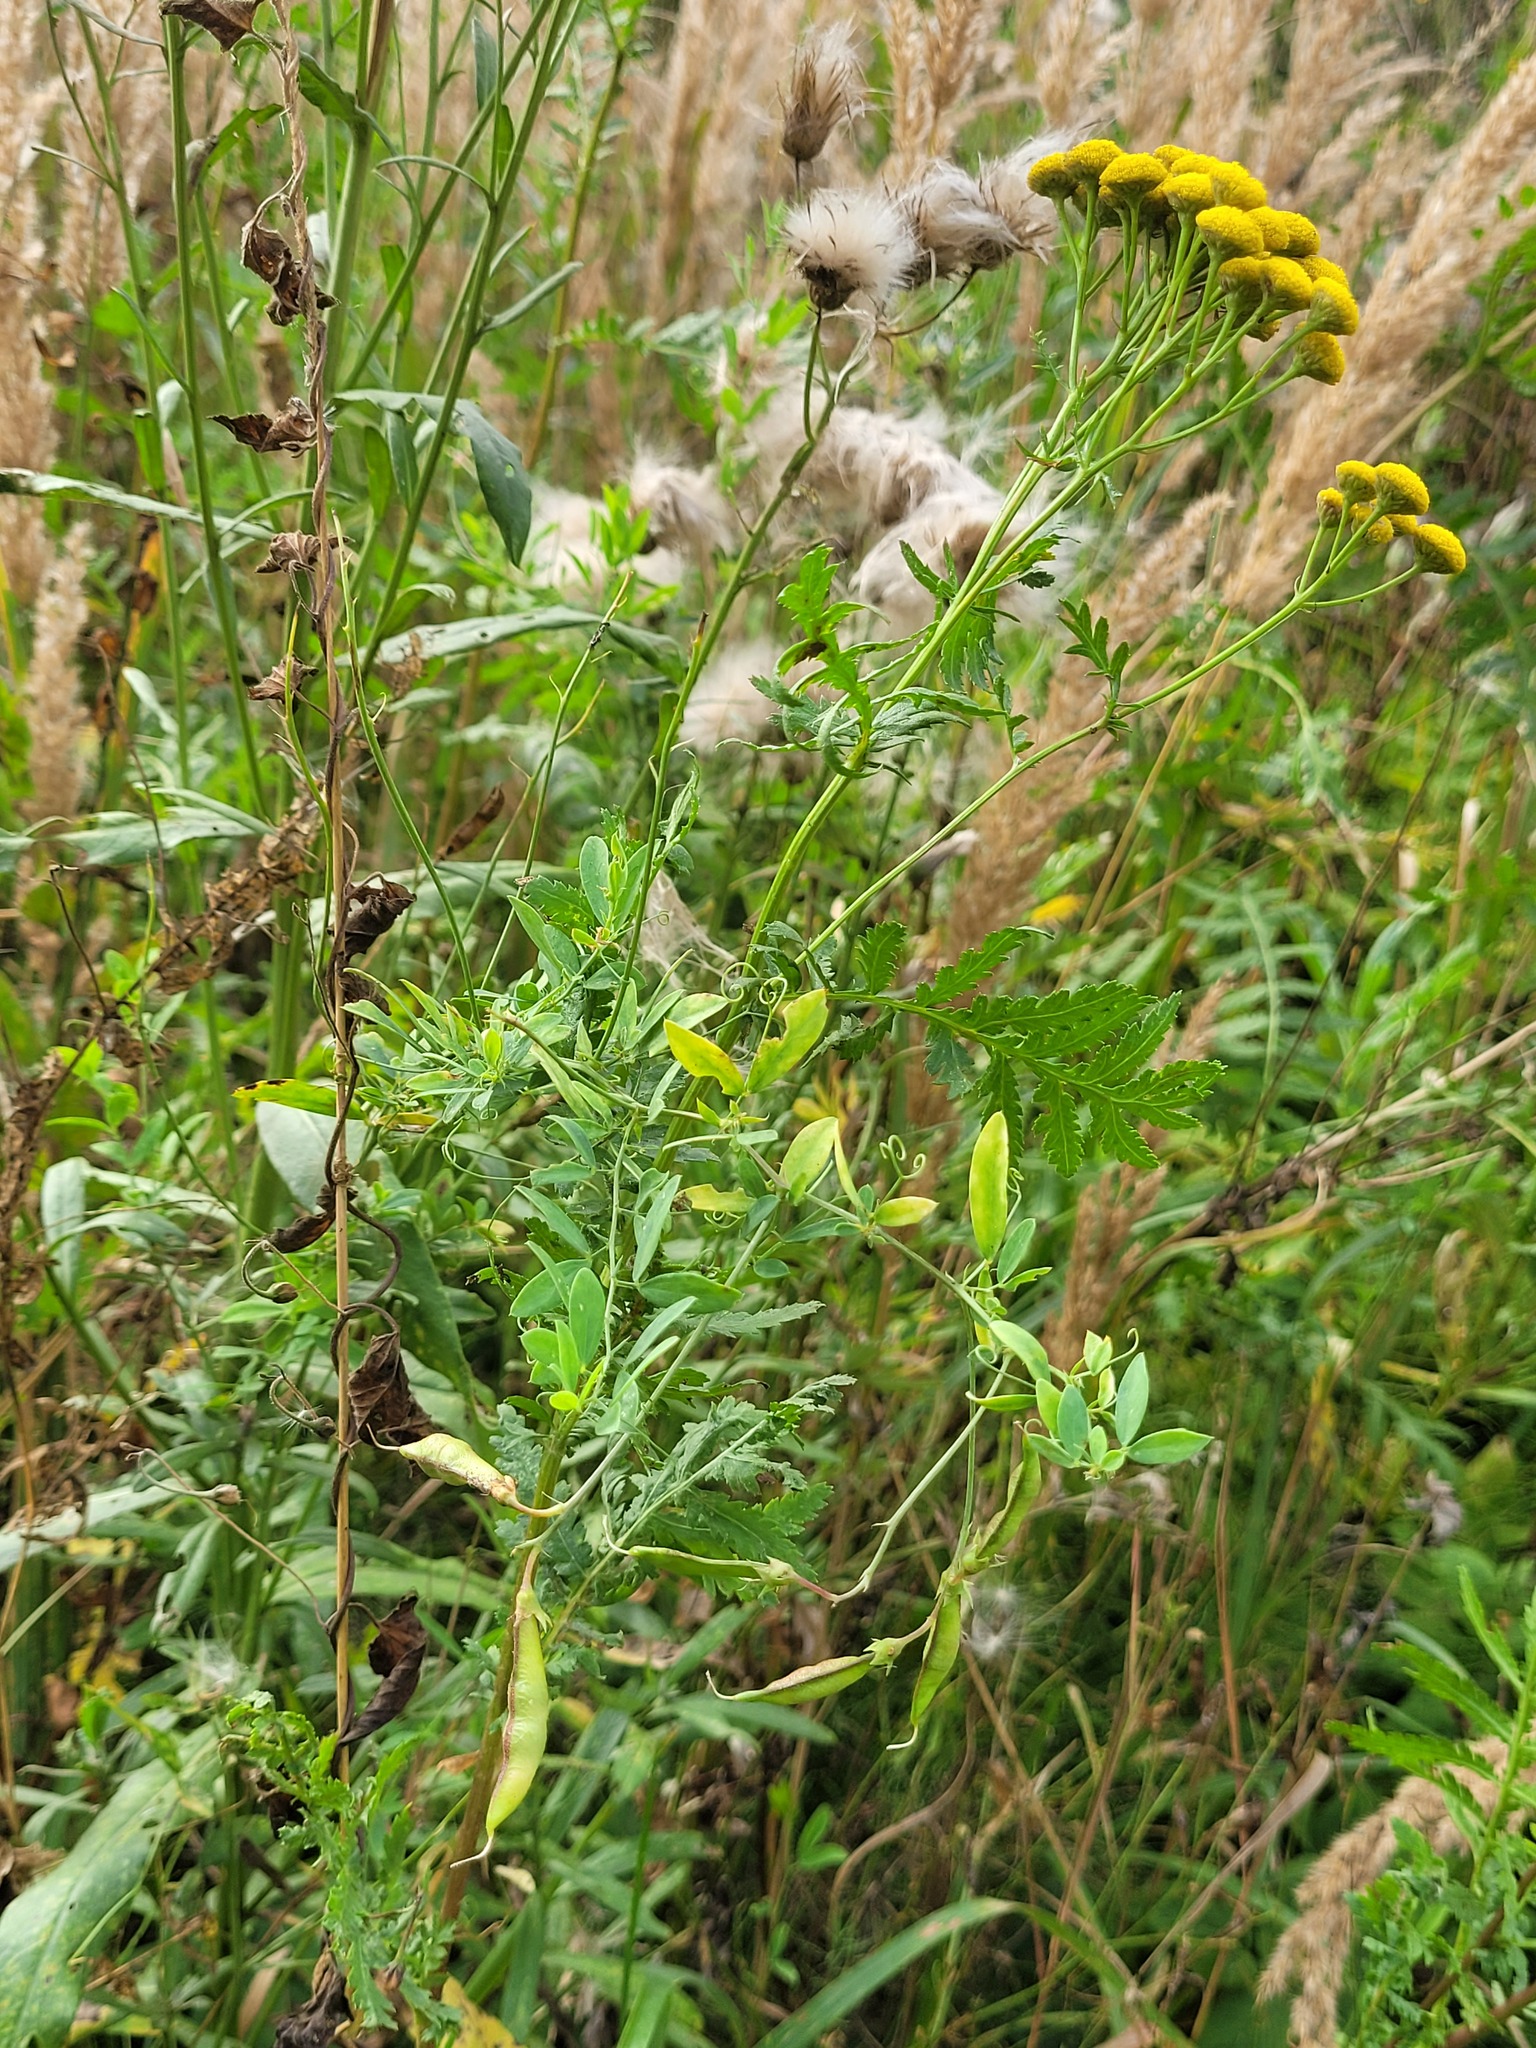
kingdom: Plantae
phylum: Tracheophyta
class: Magnoliopsida
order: Fabales
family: Fabaceae
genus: Lathyrus
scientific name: Lathyrus tuberosus
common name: Tuberous pea
